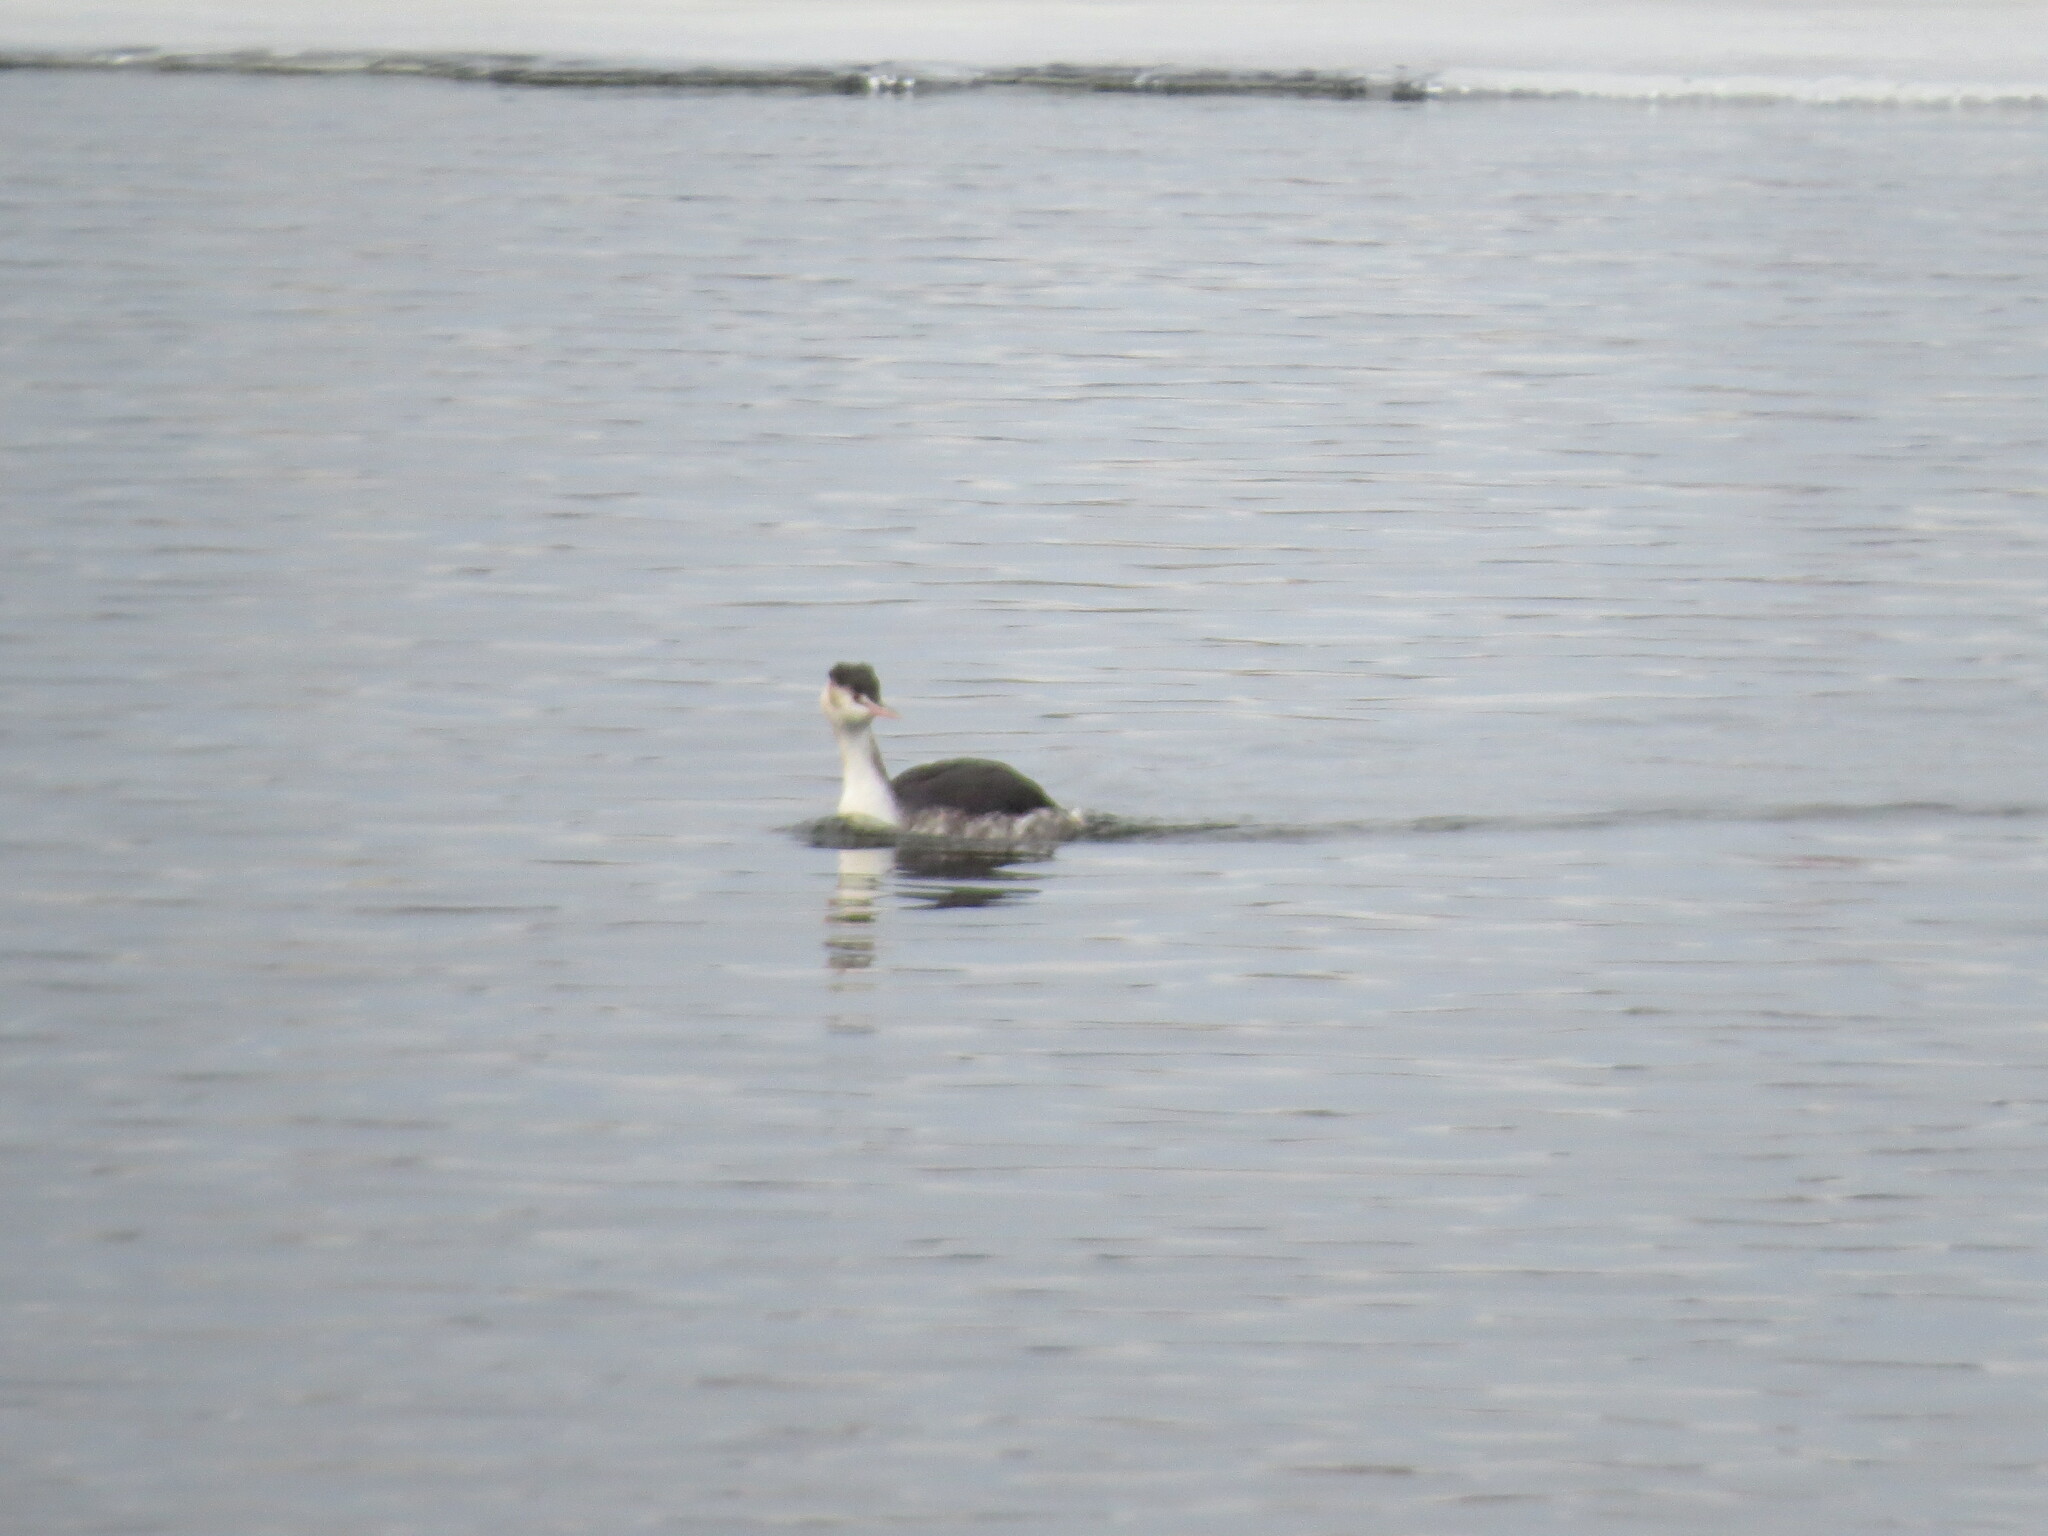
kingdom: Animalia
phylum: Chordata
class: Aves
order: Podicipediformes
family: Podicipedidae
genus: Podiceps
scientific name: Podiceps cristatus
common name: Great crested grebe
